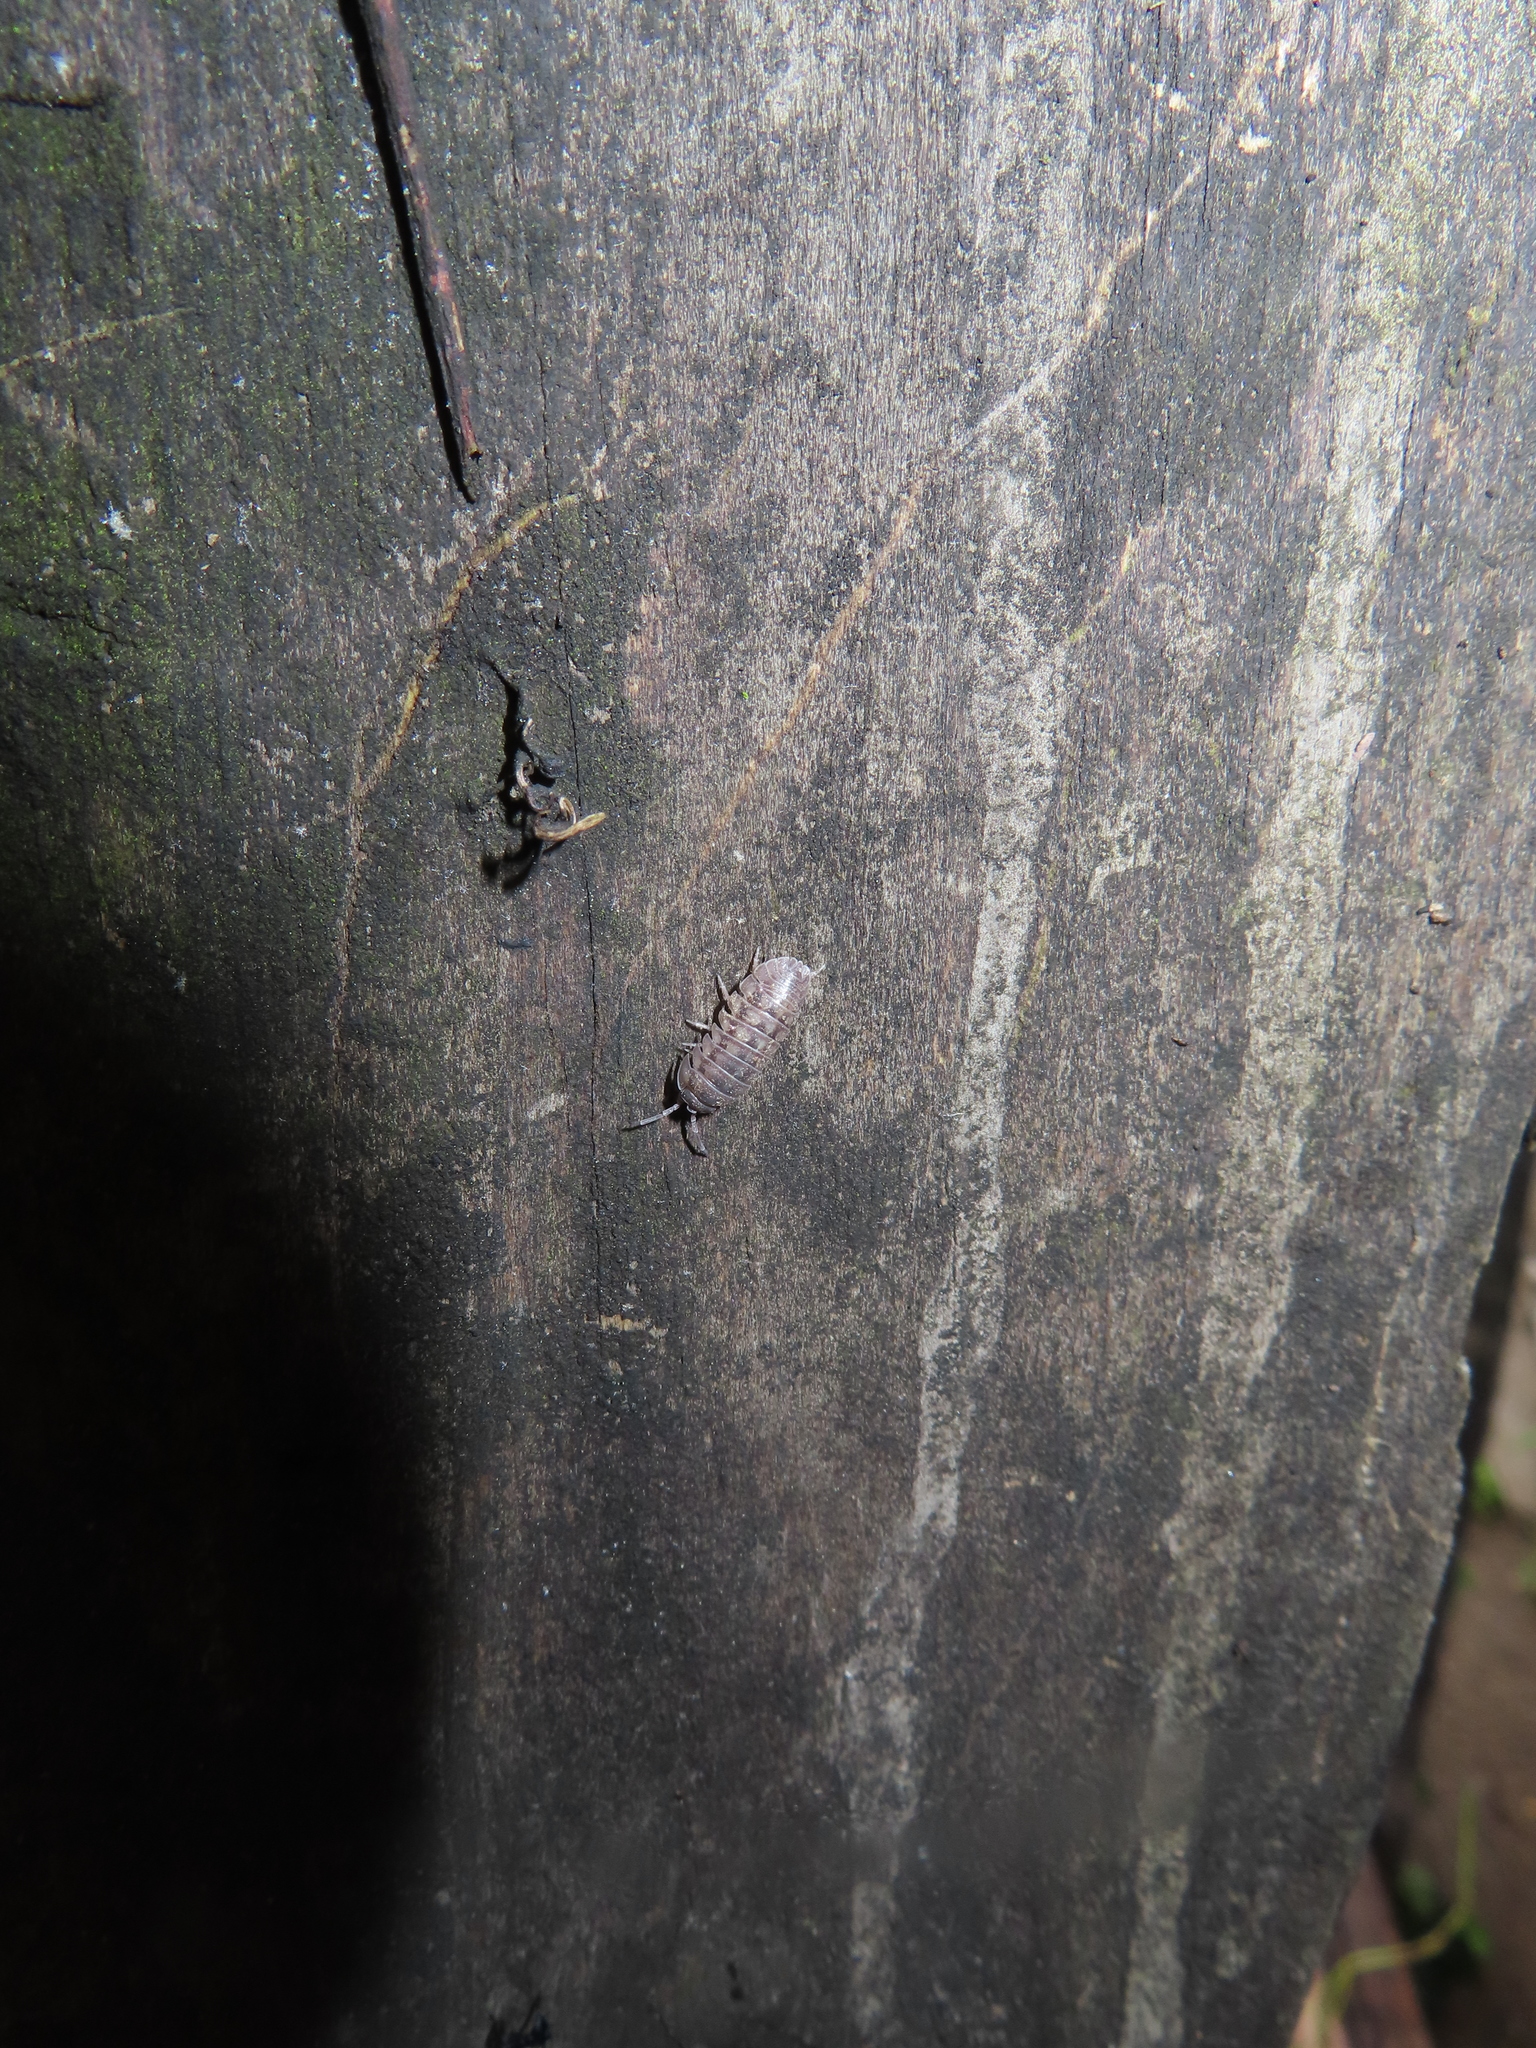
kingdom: Animalia
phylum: Arthropoda
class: Malacostraca
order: Isopoda
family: Armadillidiidae
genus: Armadillidium
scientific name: Armadillidium nasatum
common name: Isopod
